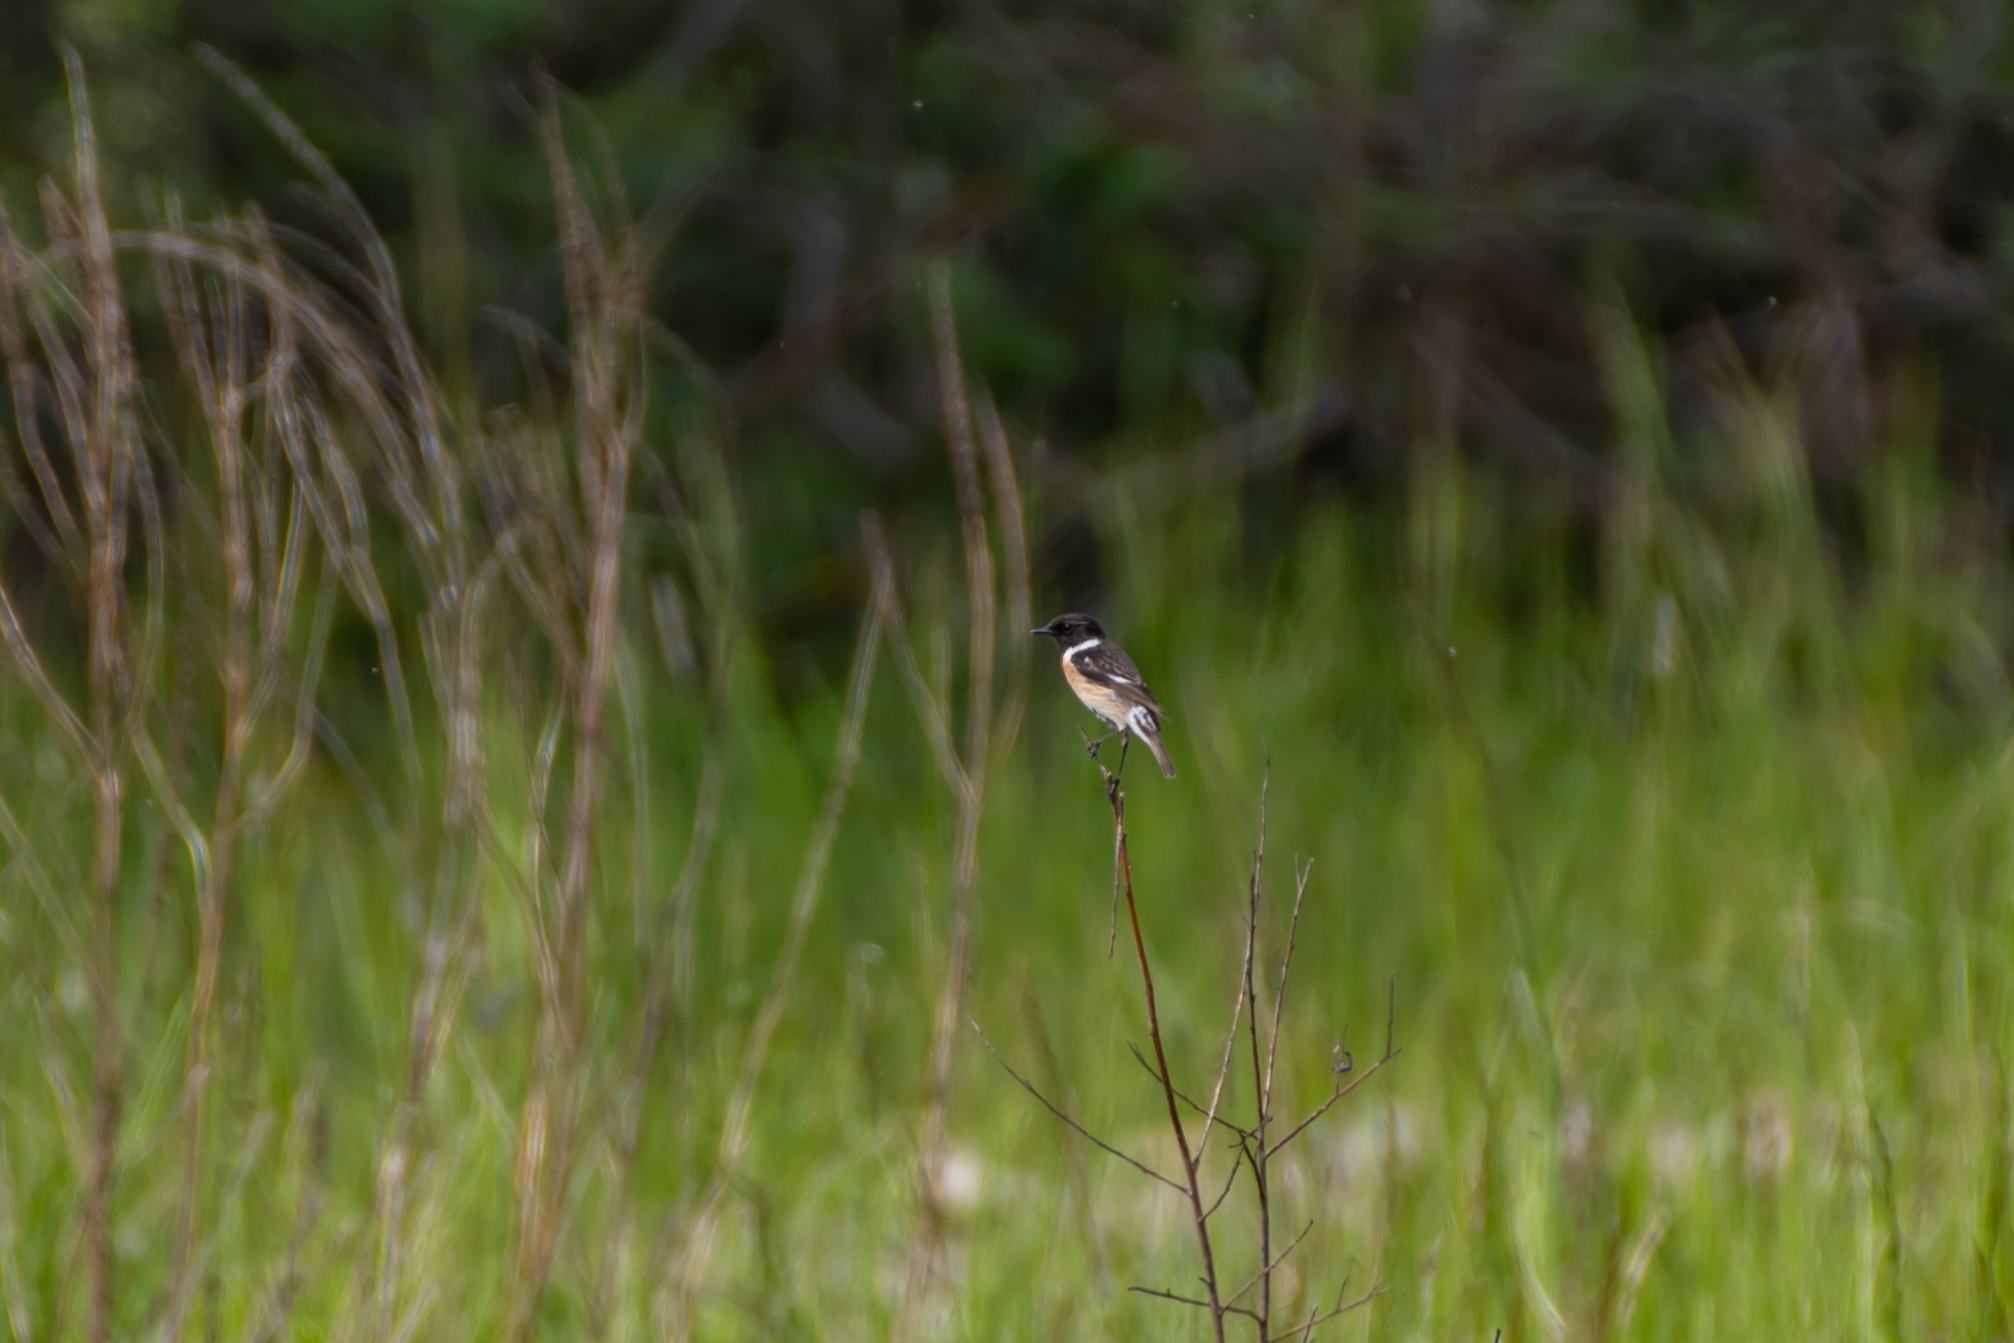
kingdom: Animalia
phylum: Chordata
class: Aves
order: Passeriformes
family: Muscicapidae
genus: Saxicola
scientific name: Saxicola rubicola
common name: European stonechat
